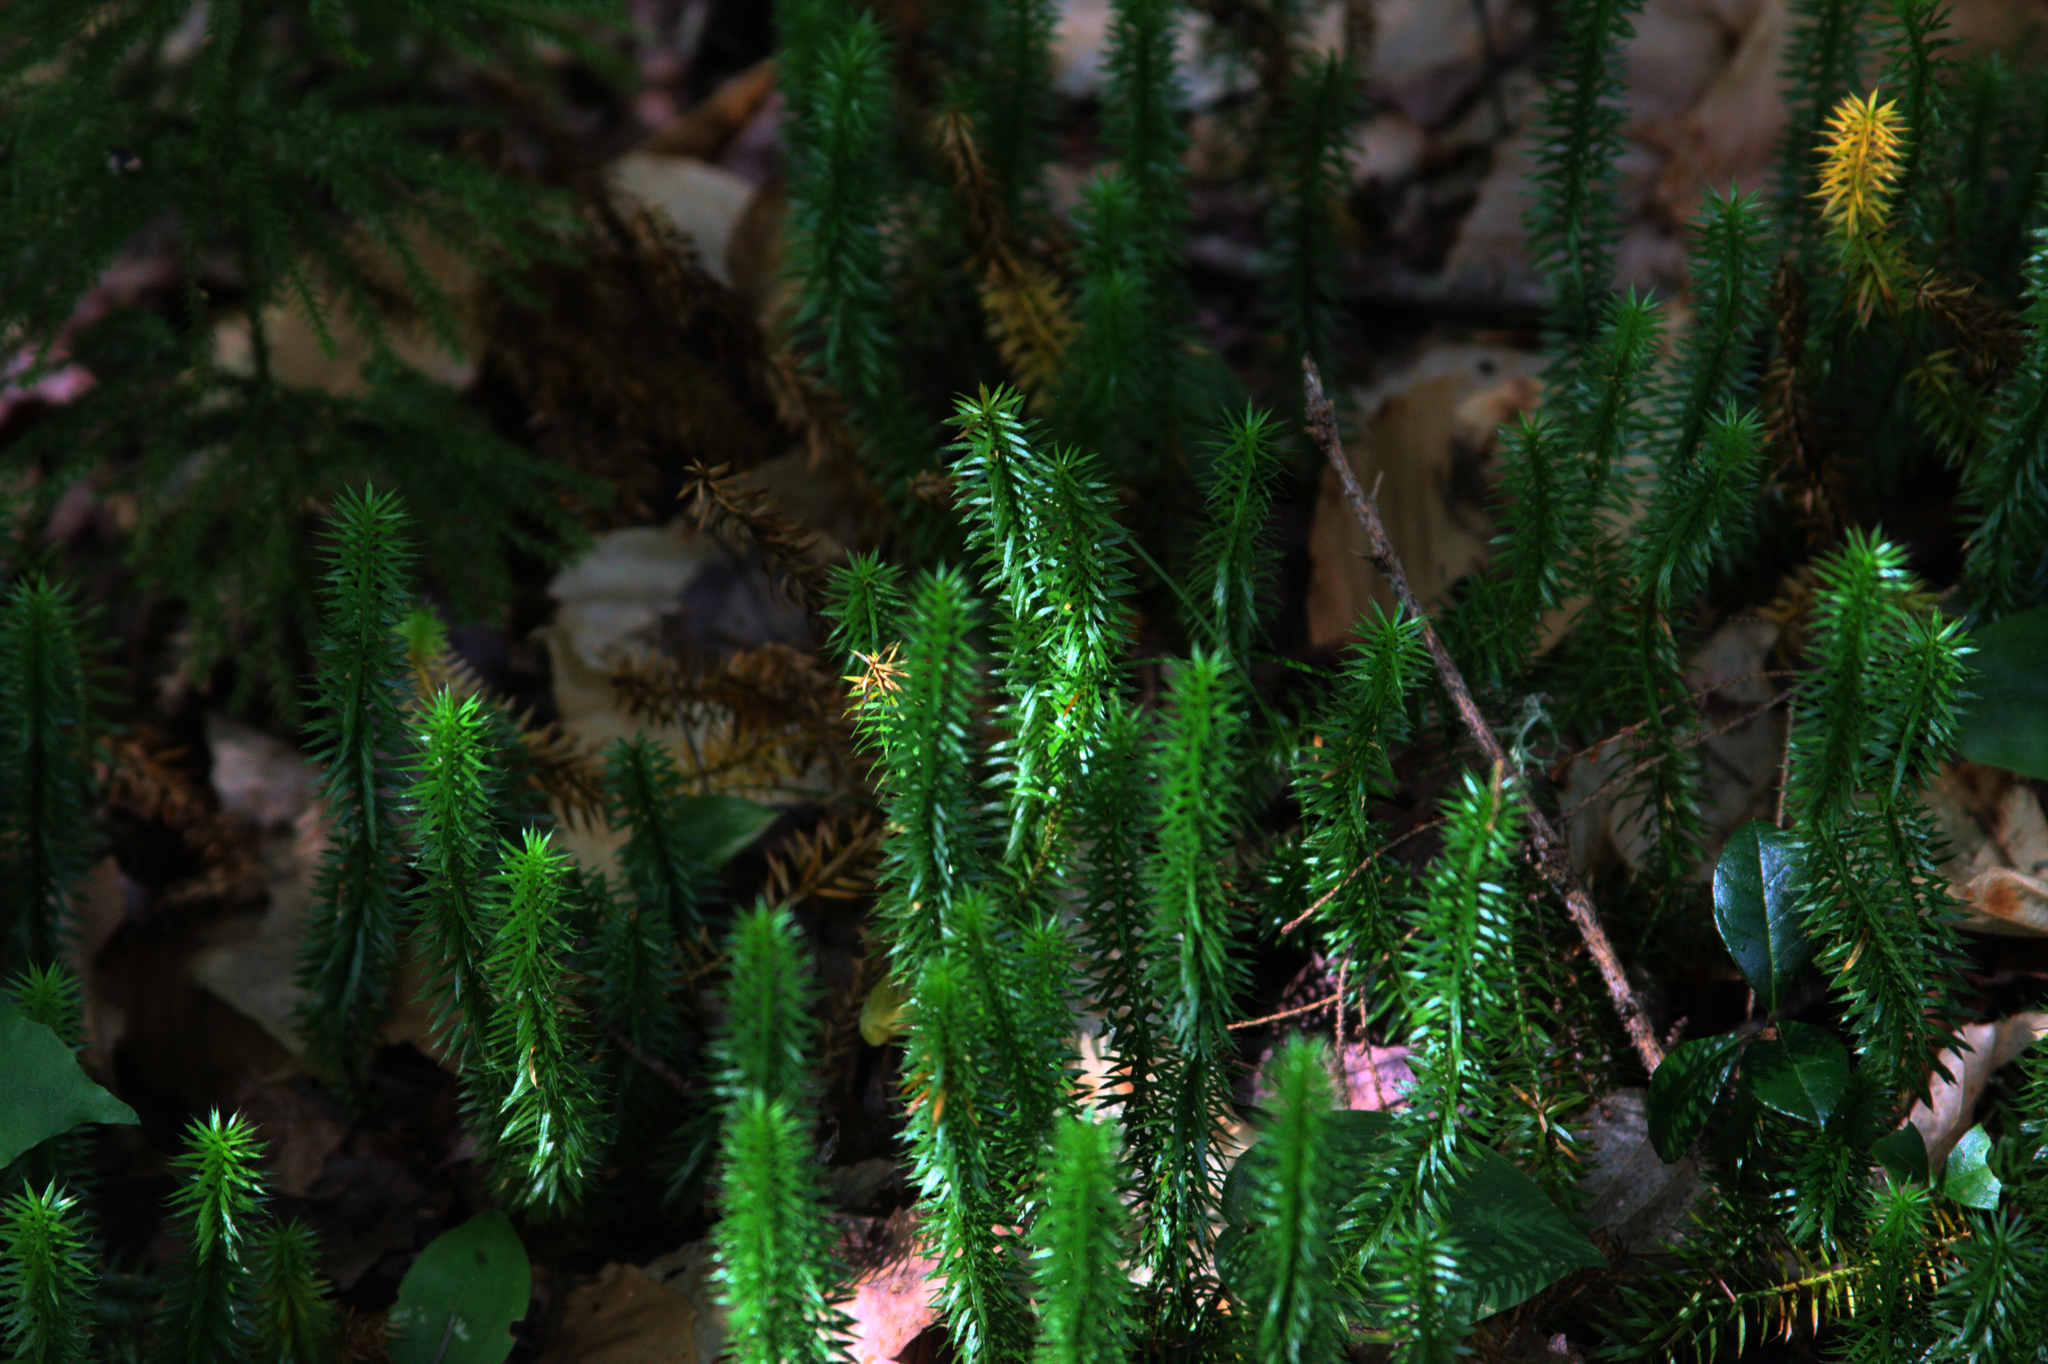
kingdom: Plantae
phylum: Tracheophyta
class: Lycopodiopsida
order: Lycopodiales
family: Lycopodiaceae
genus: Spinulum
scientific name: Spinulum annotinum
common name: Interrupted club-moss
